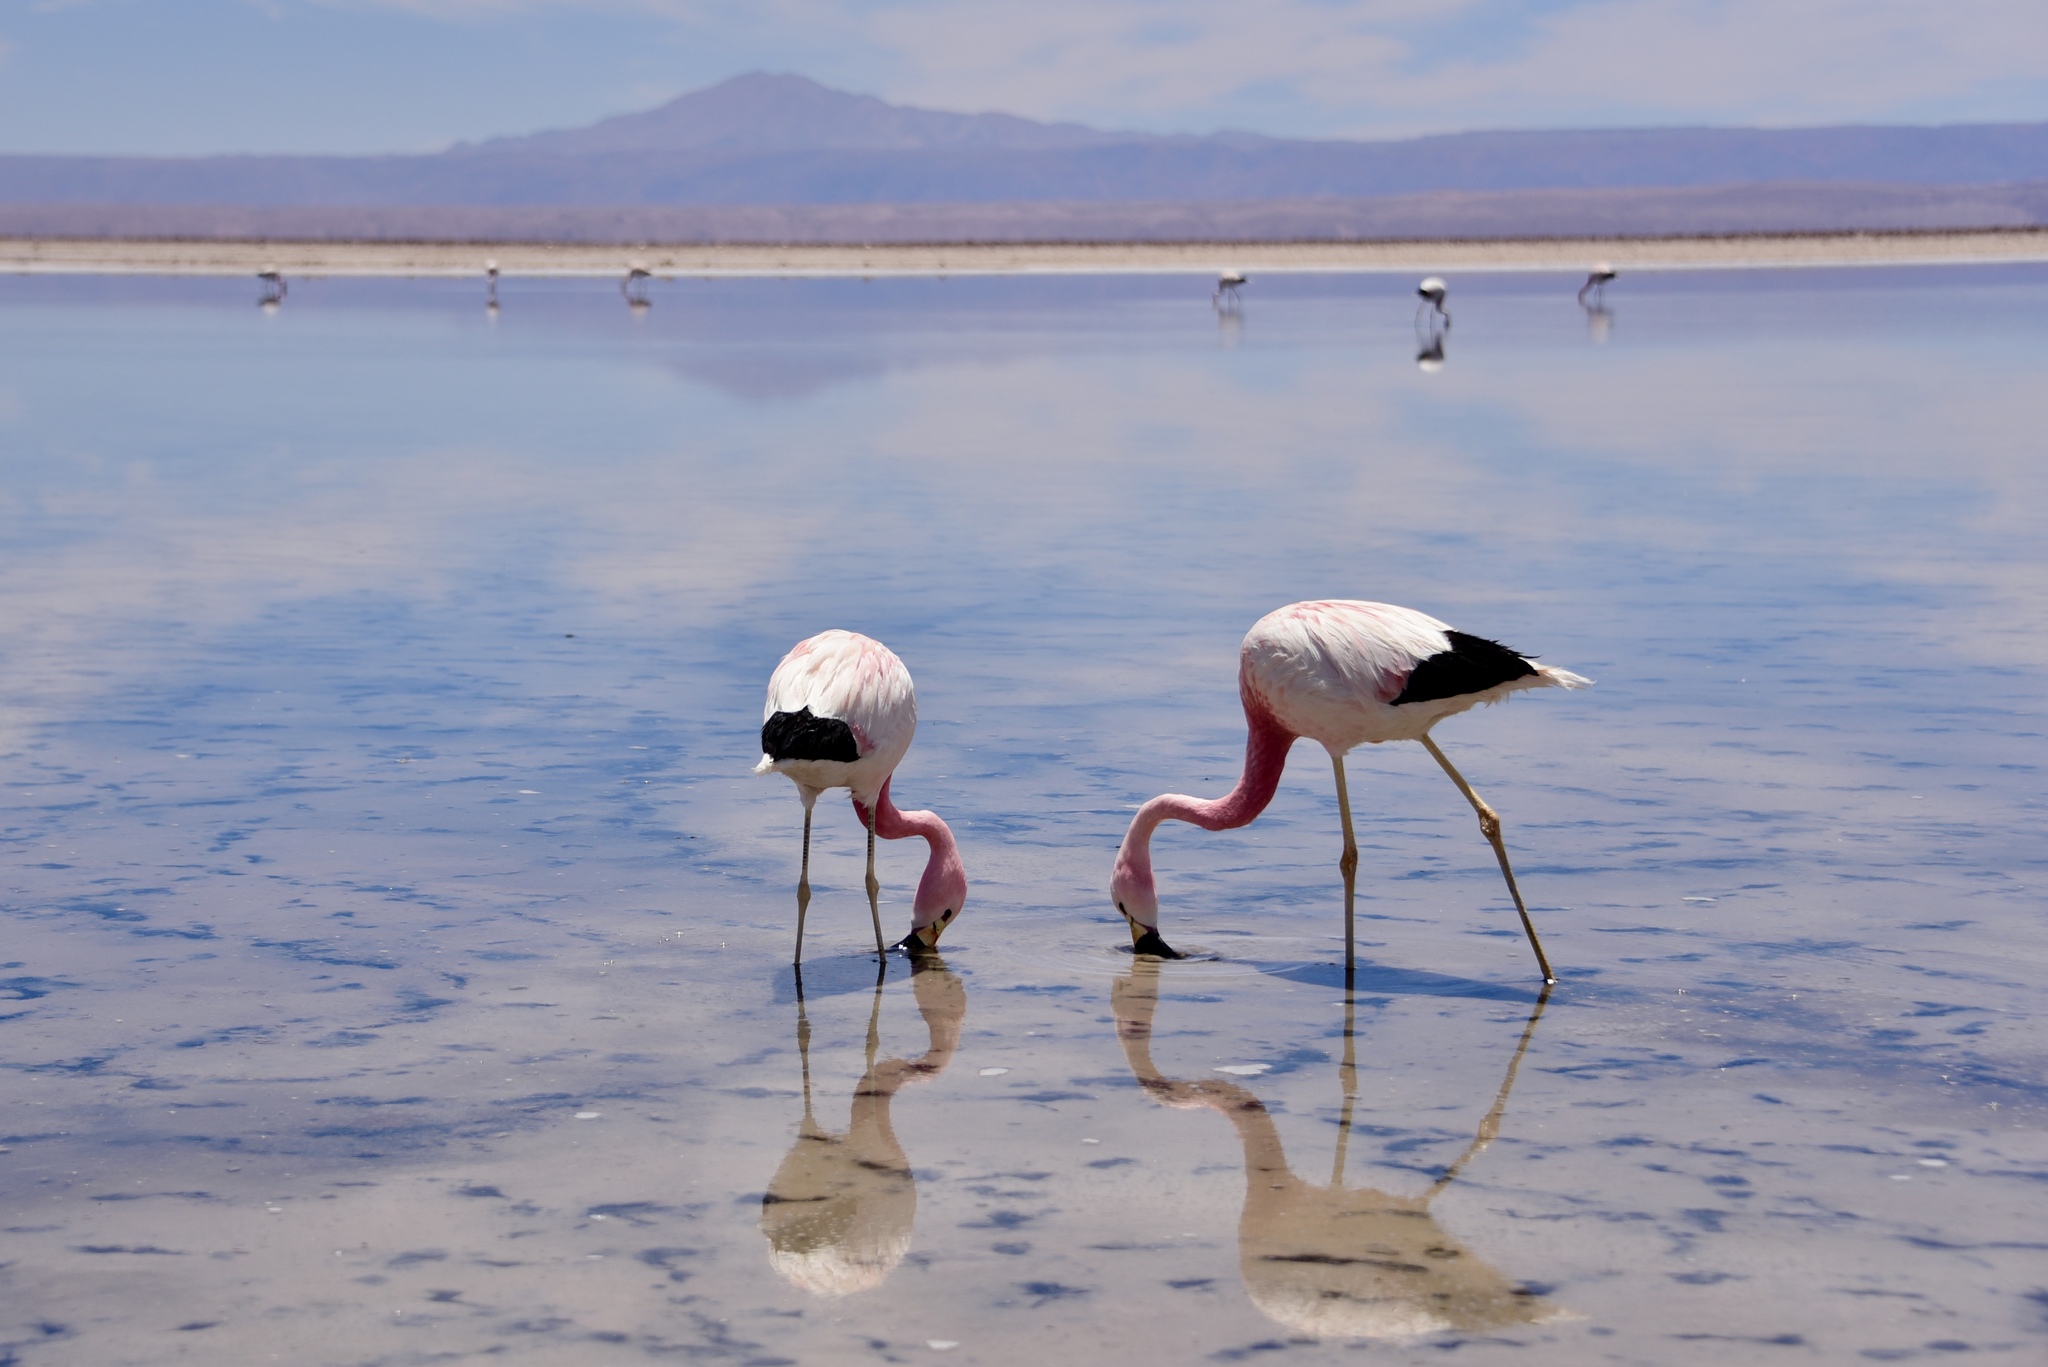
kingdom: Animalia
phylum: Chordata
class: Aves
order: Phoenicopteriformes
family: Phoenicopteridae
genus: Phoenicoparrus
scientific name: Phoenicoparrus andinus
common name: Andean flamingo
